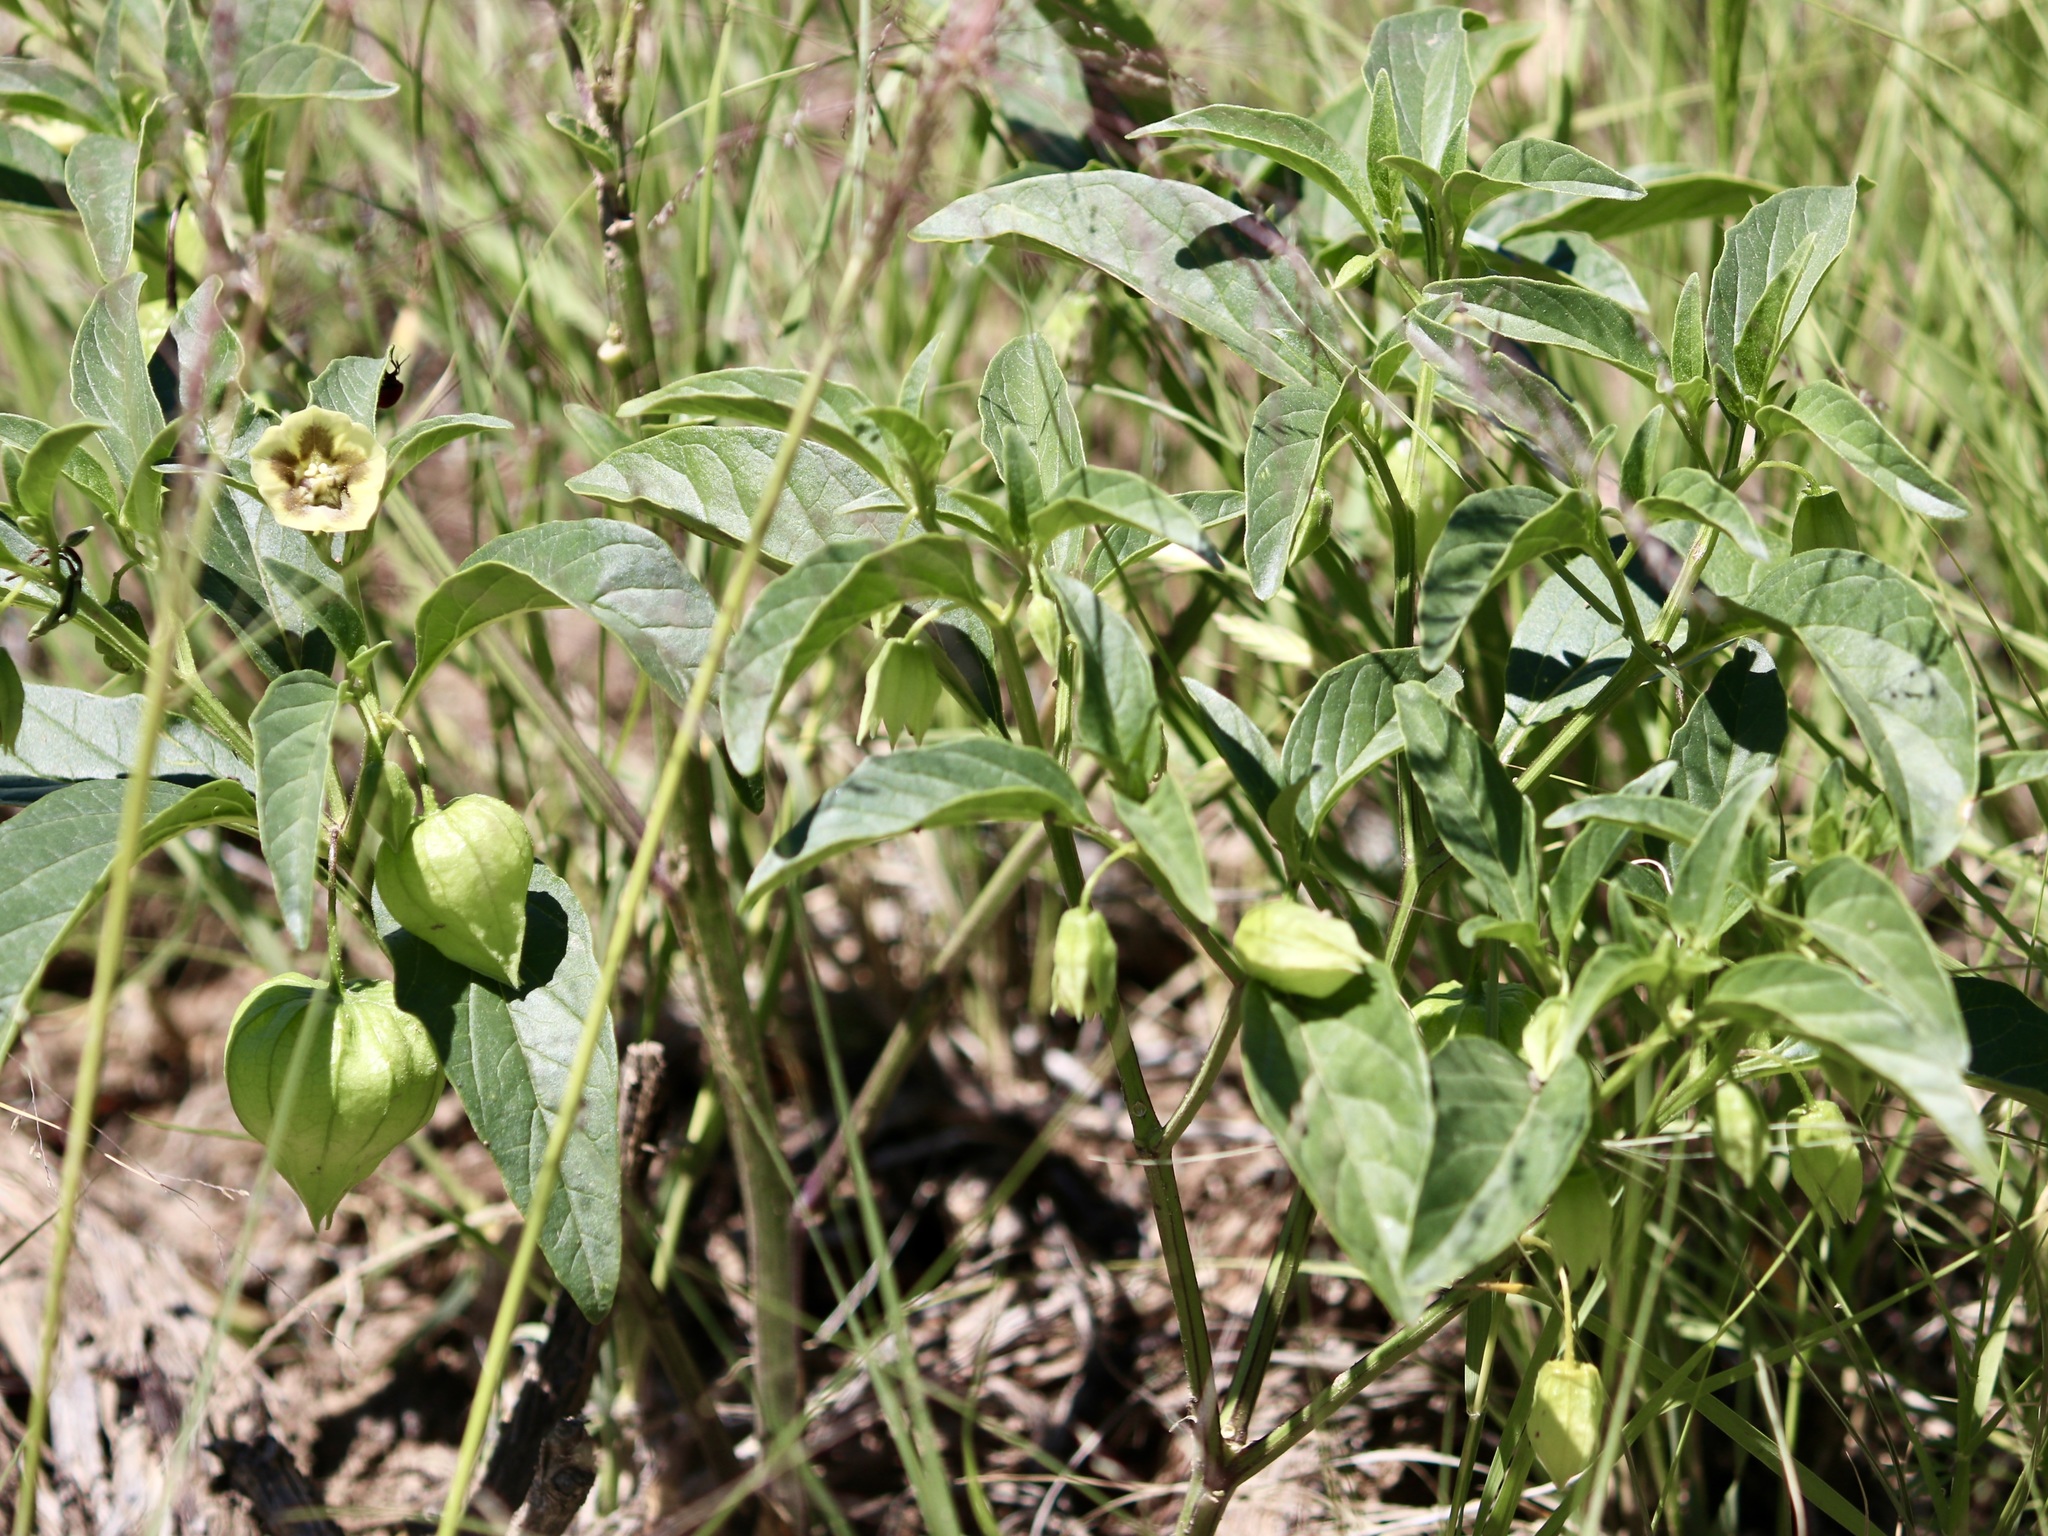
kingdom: Plantae
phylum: Tracheophyta
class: Magnoliopsida
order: Solanales
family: Solanaceae
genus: Physalis
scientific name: Physalis longifolia
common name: Common ground-cherry
